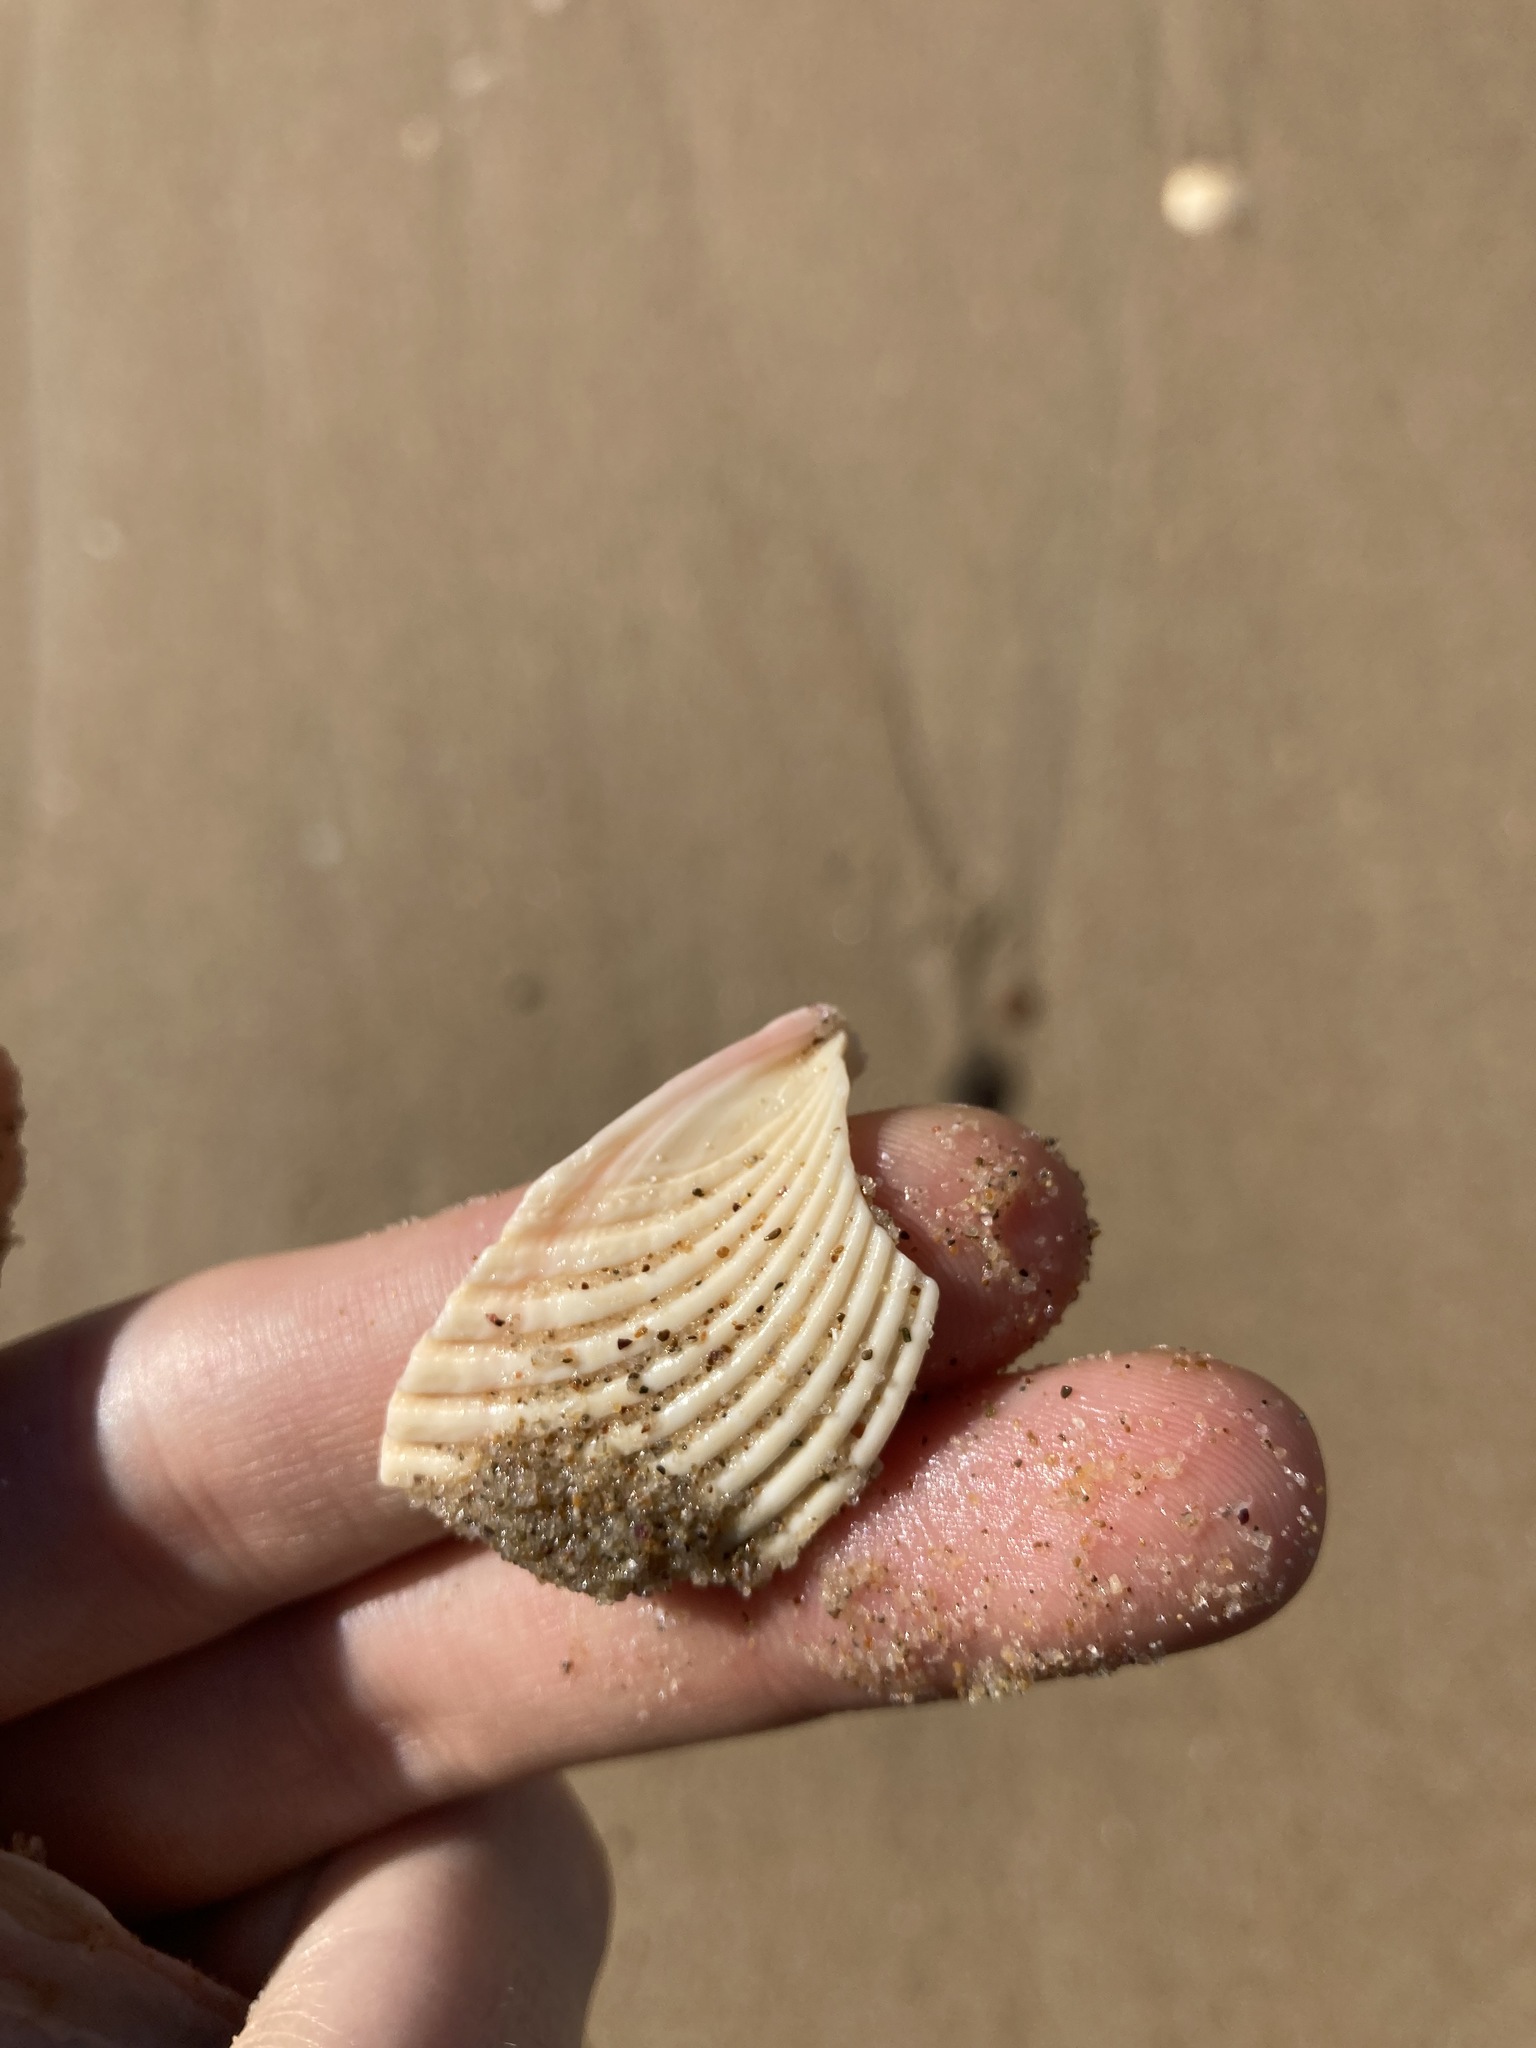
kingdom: Animalia
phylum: Mollusca
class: Bivalvia
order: Cardiida
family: Cardiidae
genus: Vepricardium
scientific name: Vepricardium multispinosum
